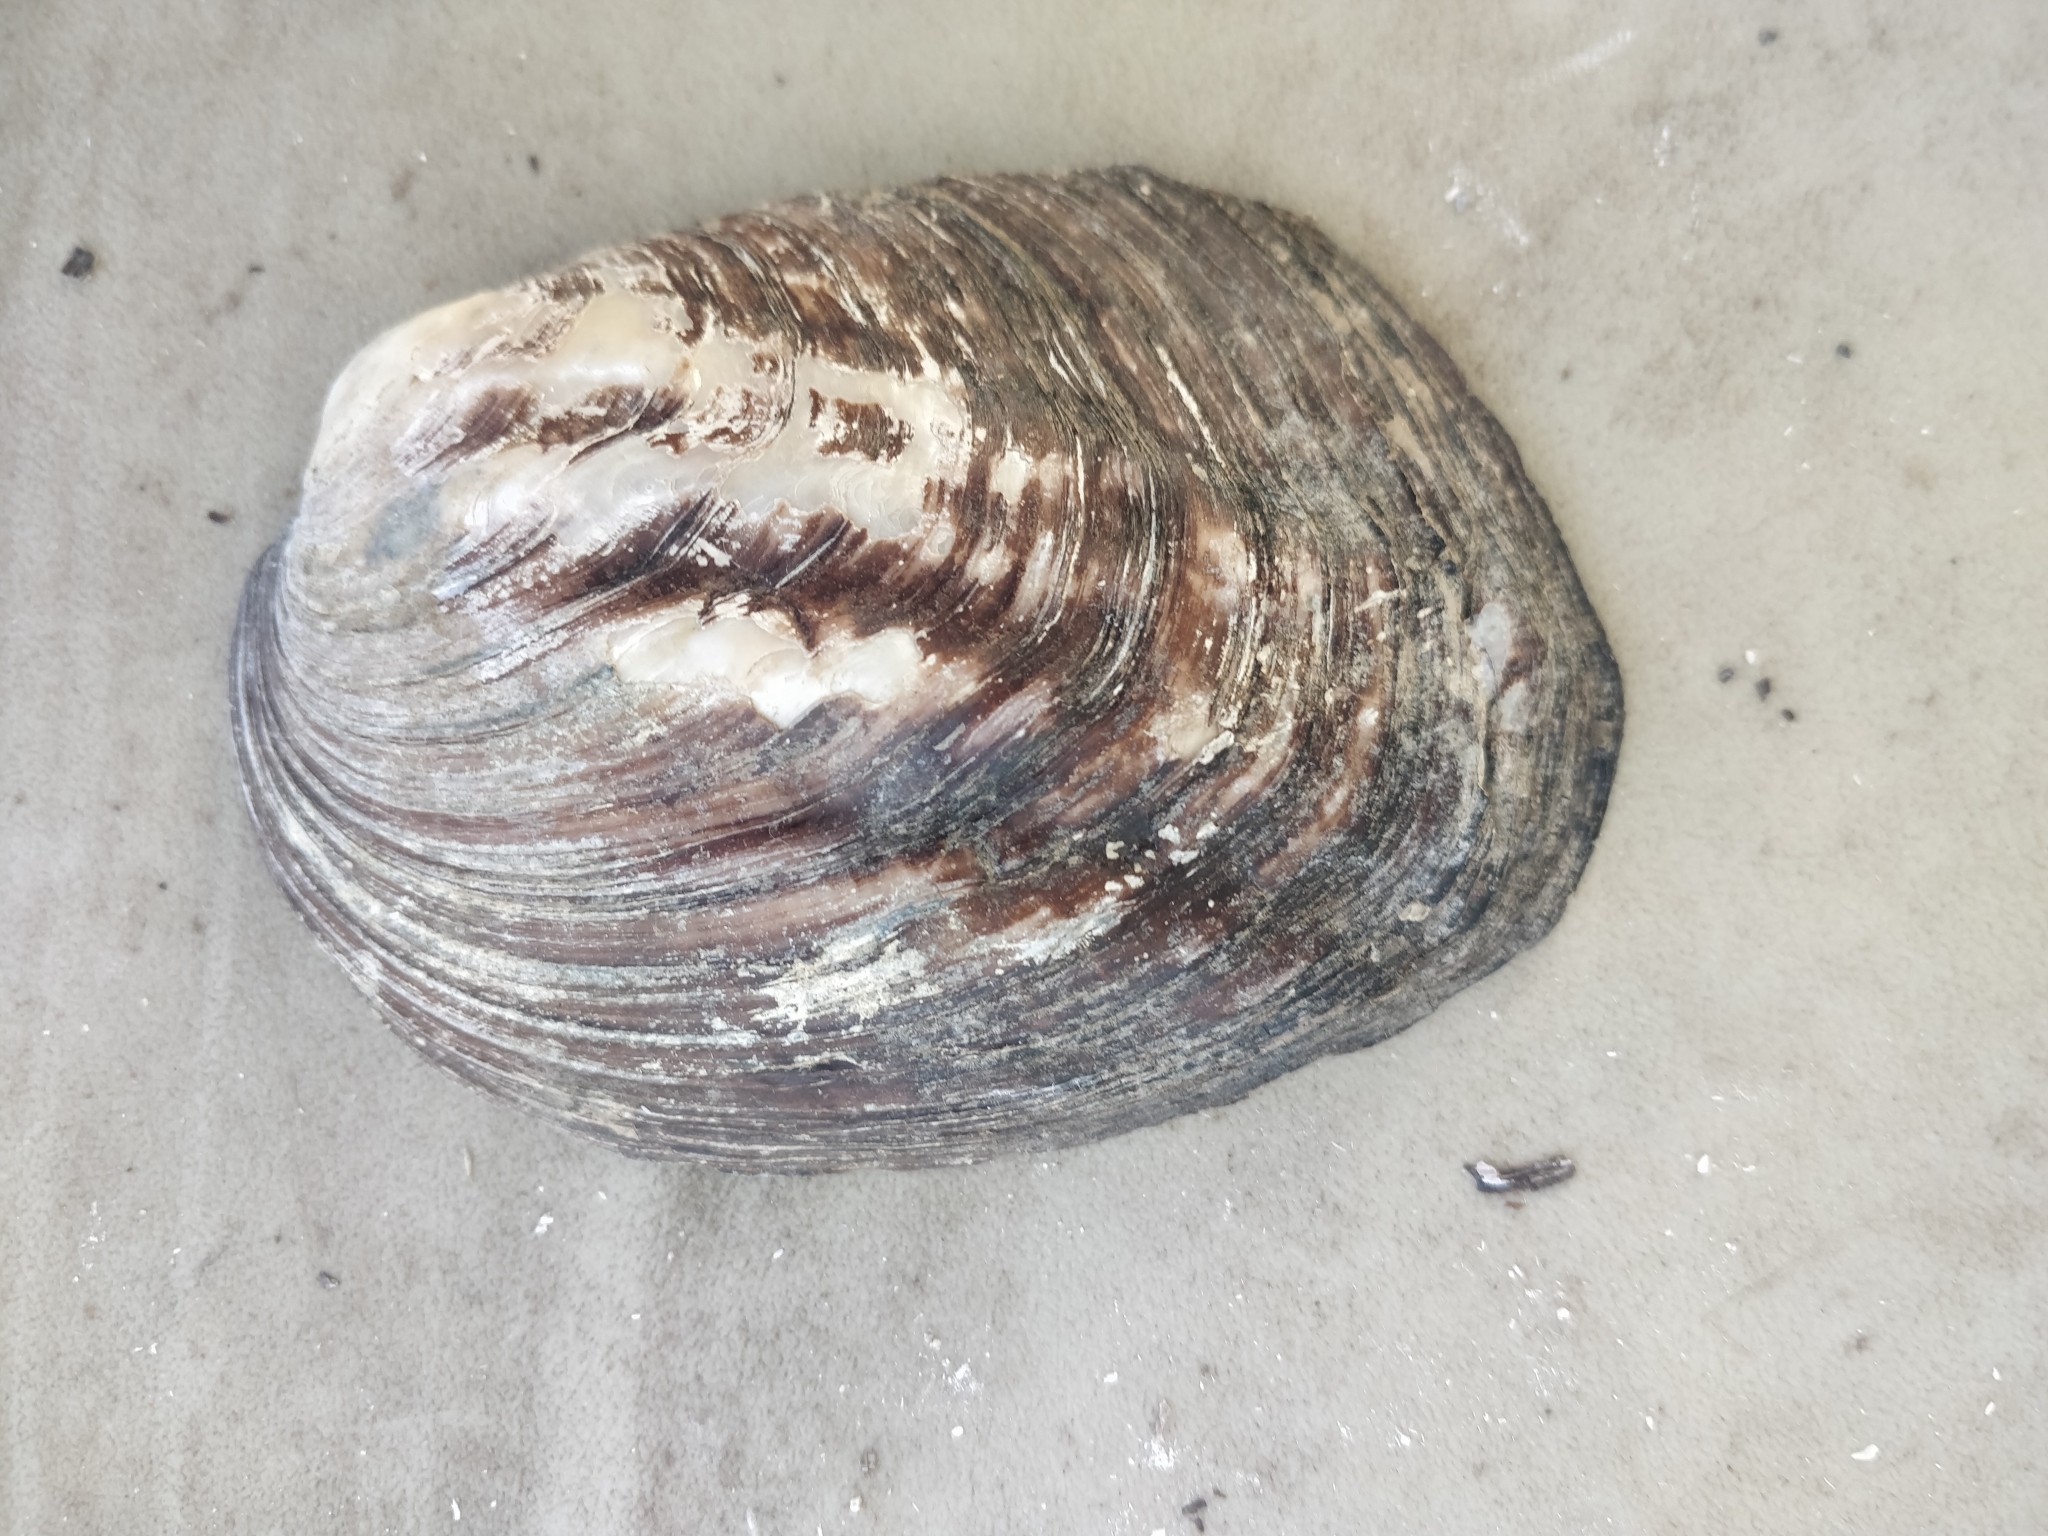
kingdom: Animalia
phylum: Mollusca
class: Bivalvia
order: Unionida
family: Unionidae
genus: Amblema
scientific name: Amblema plicata
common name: Threeridge
